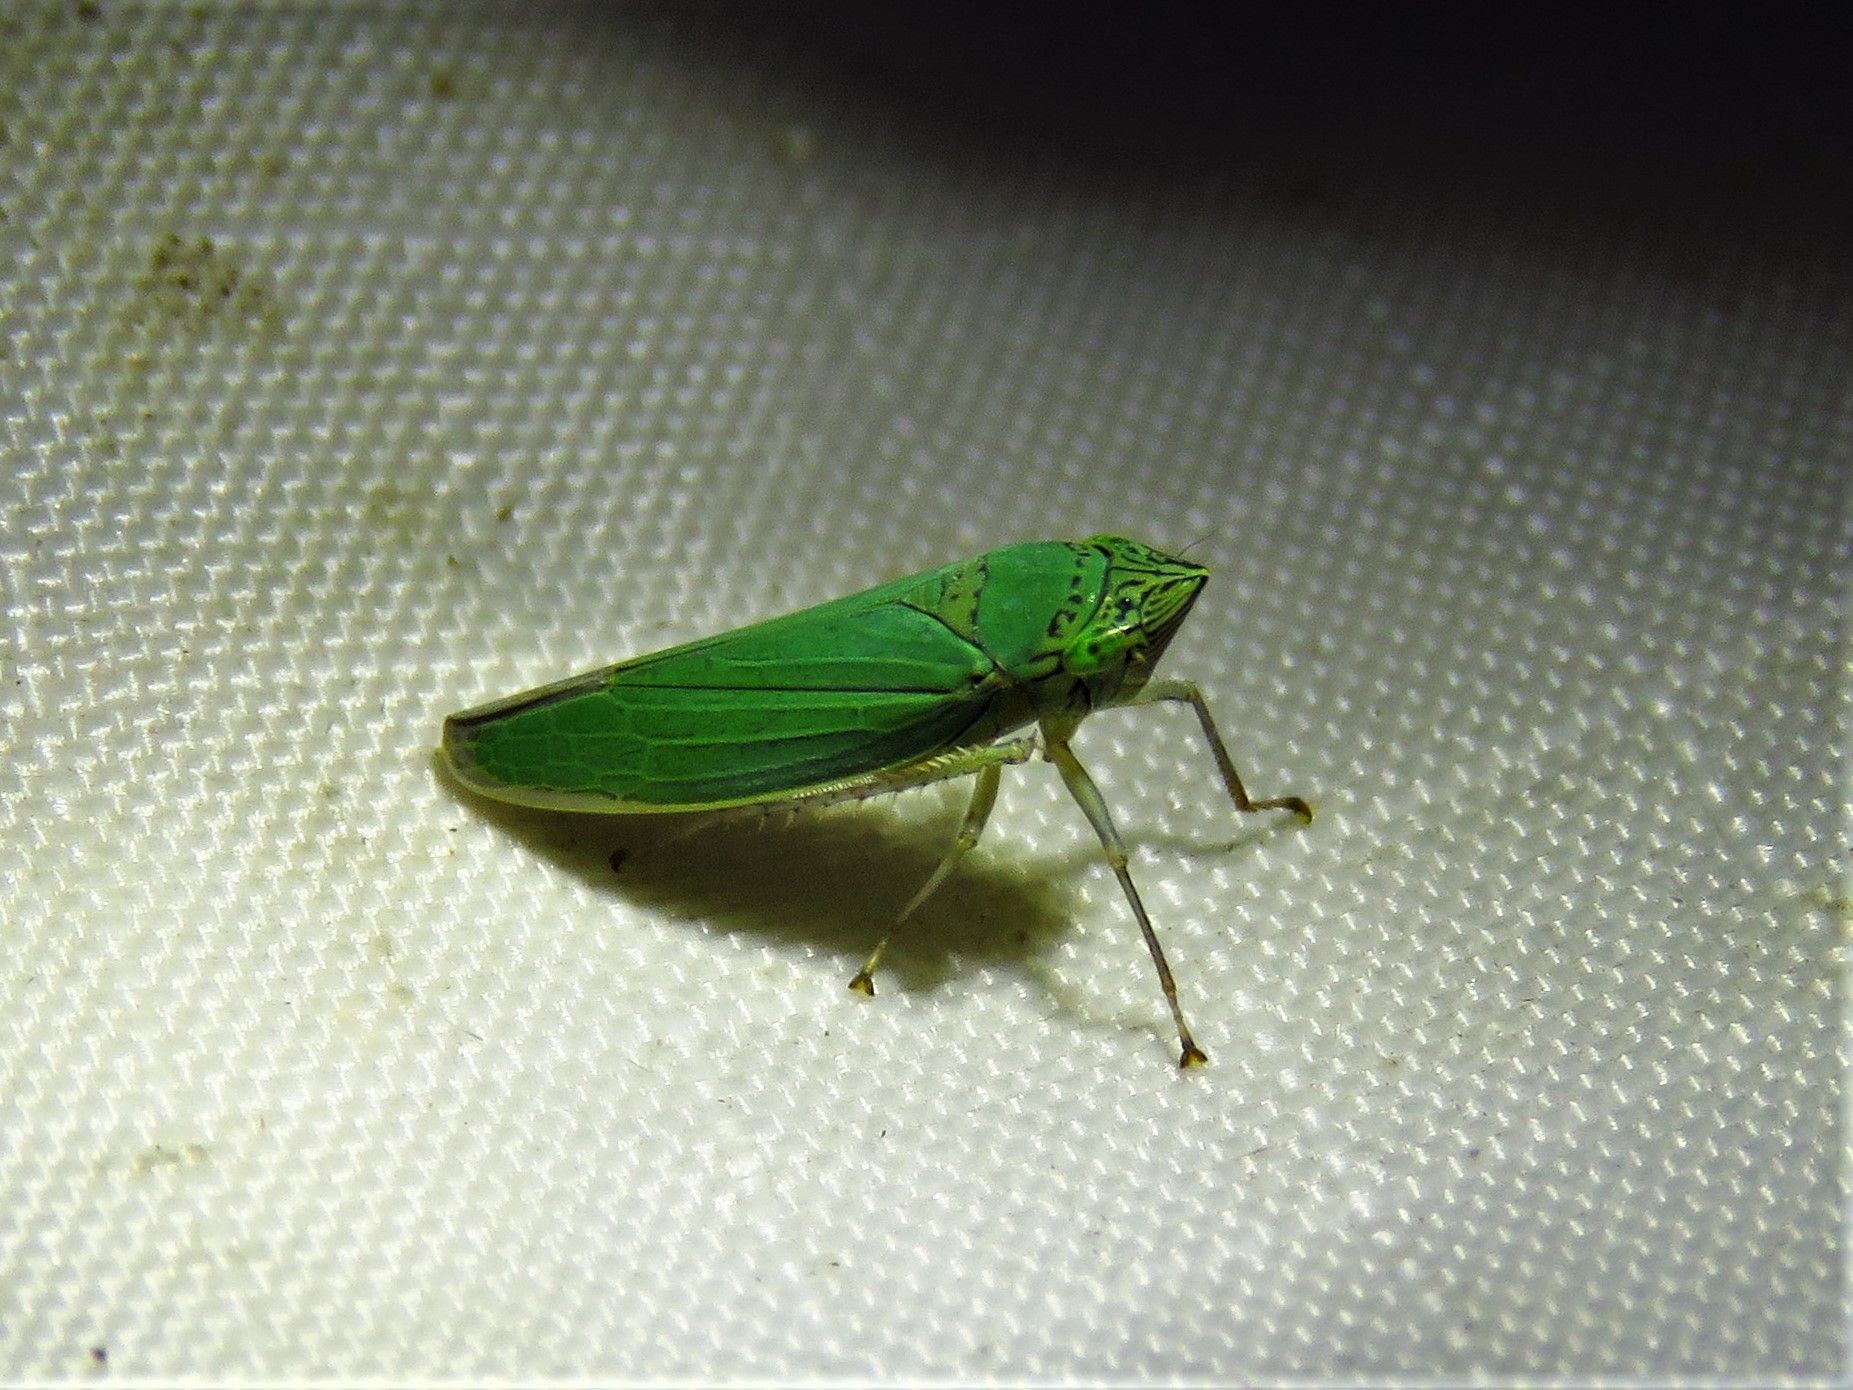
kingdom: Animalia
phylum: Arthropoda
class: Insecta
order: Hemiptera
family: Cicadellidae
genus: Draeculacephala
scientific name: Draeculacephala inscripta
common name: Leafhopper
